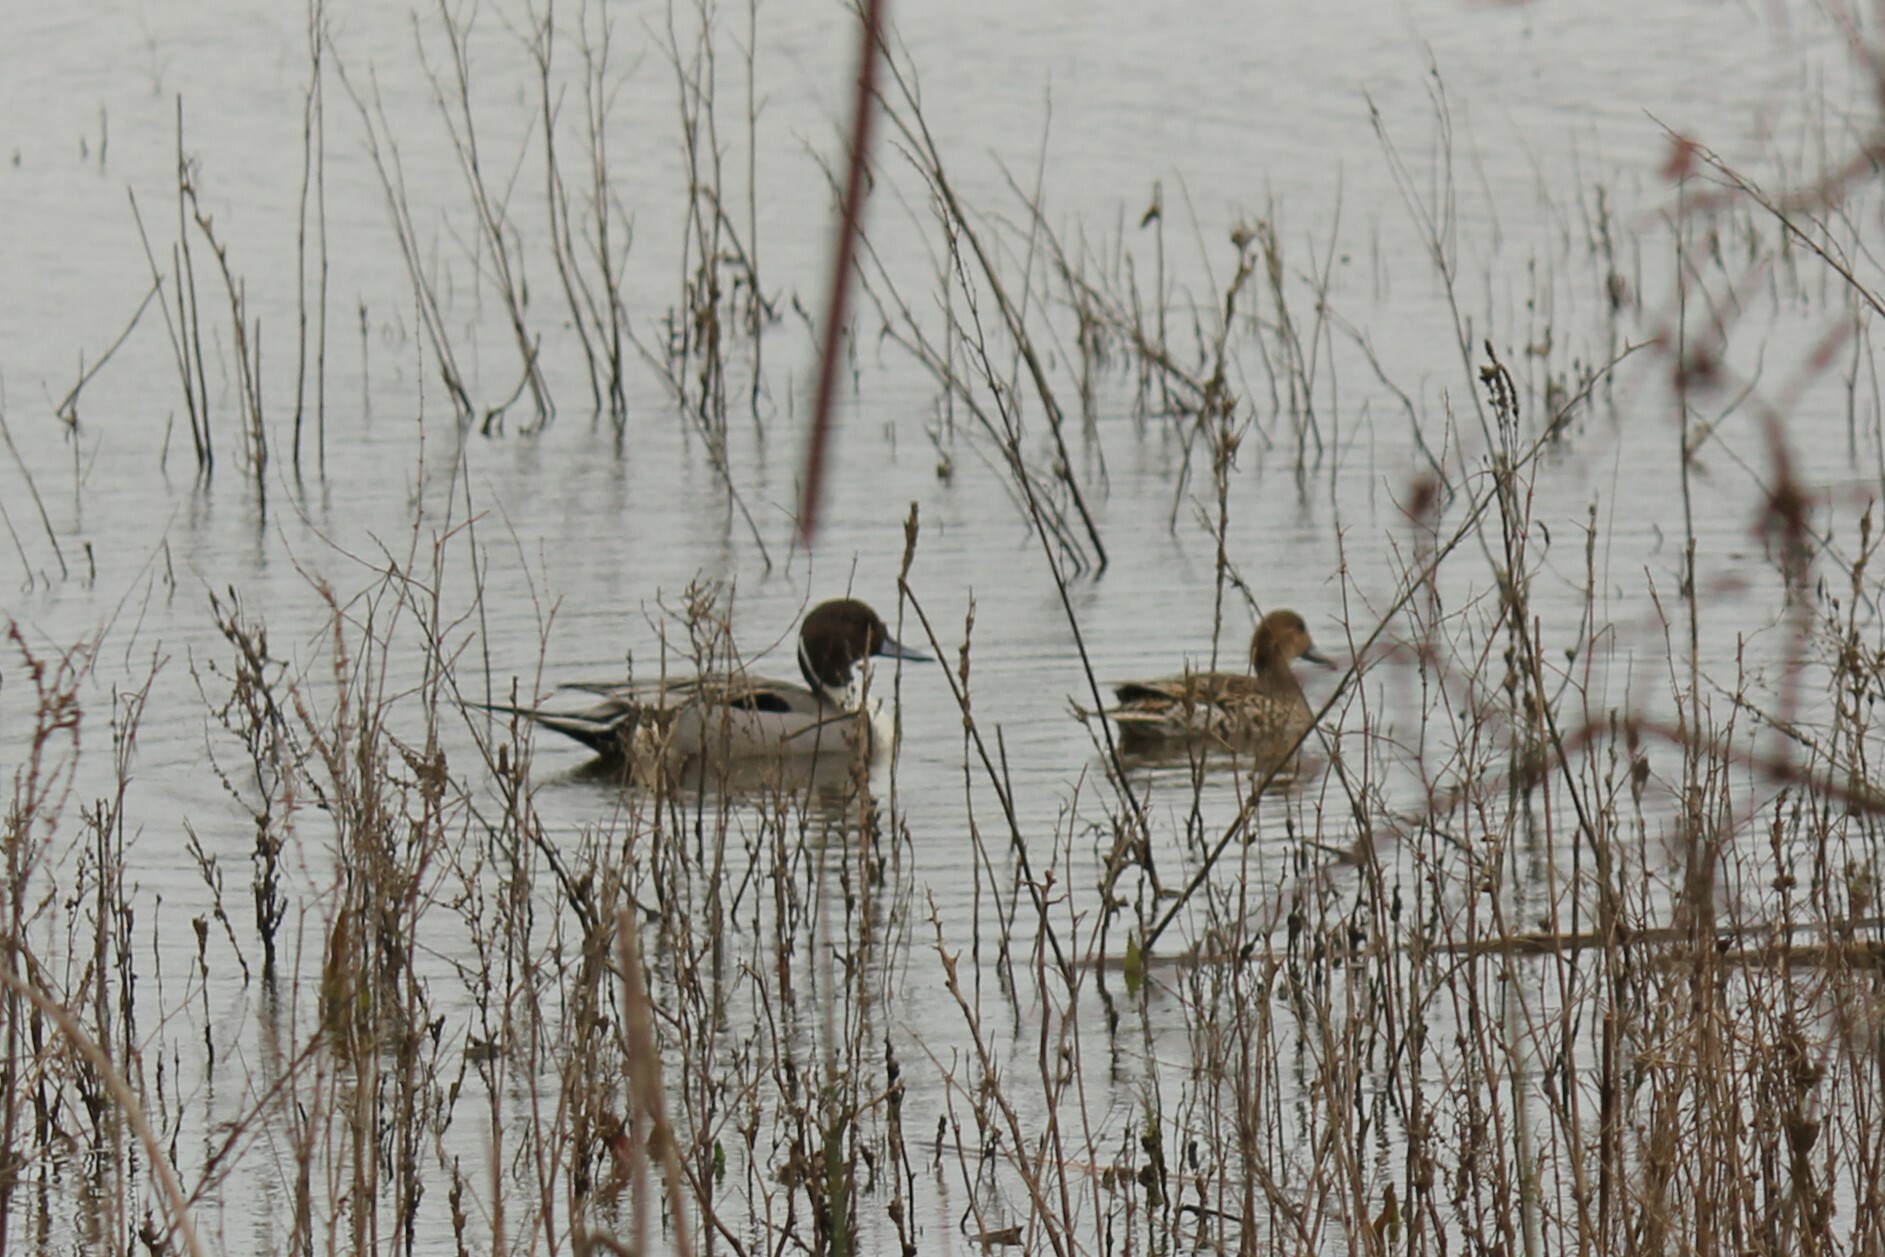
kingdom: Animalia
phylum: Chordata
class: Aves
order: Anseriformes
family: Anatidae
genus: Anas
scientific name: Anas acuta
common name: Northern pintail
